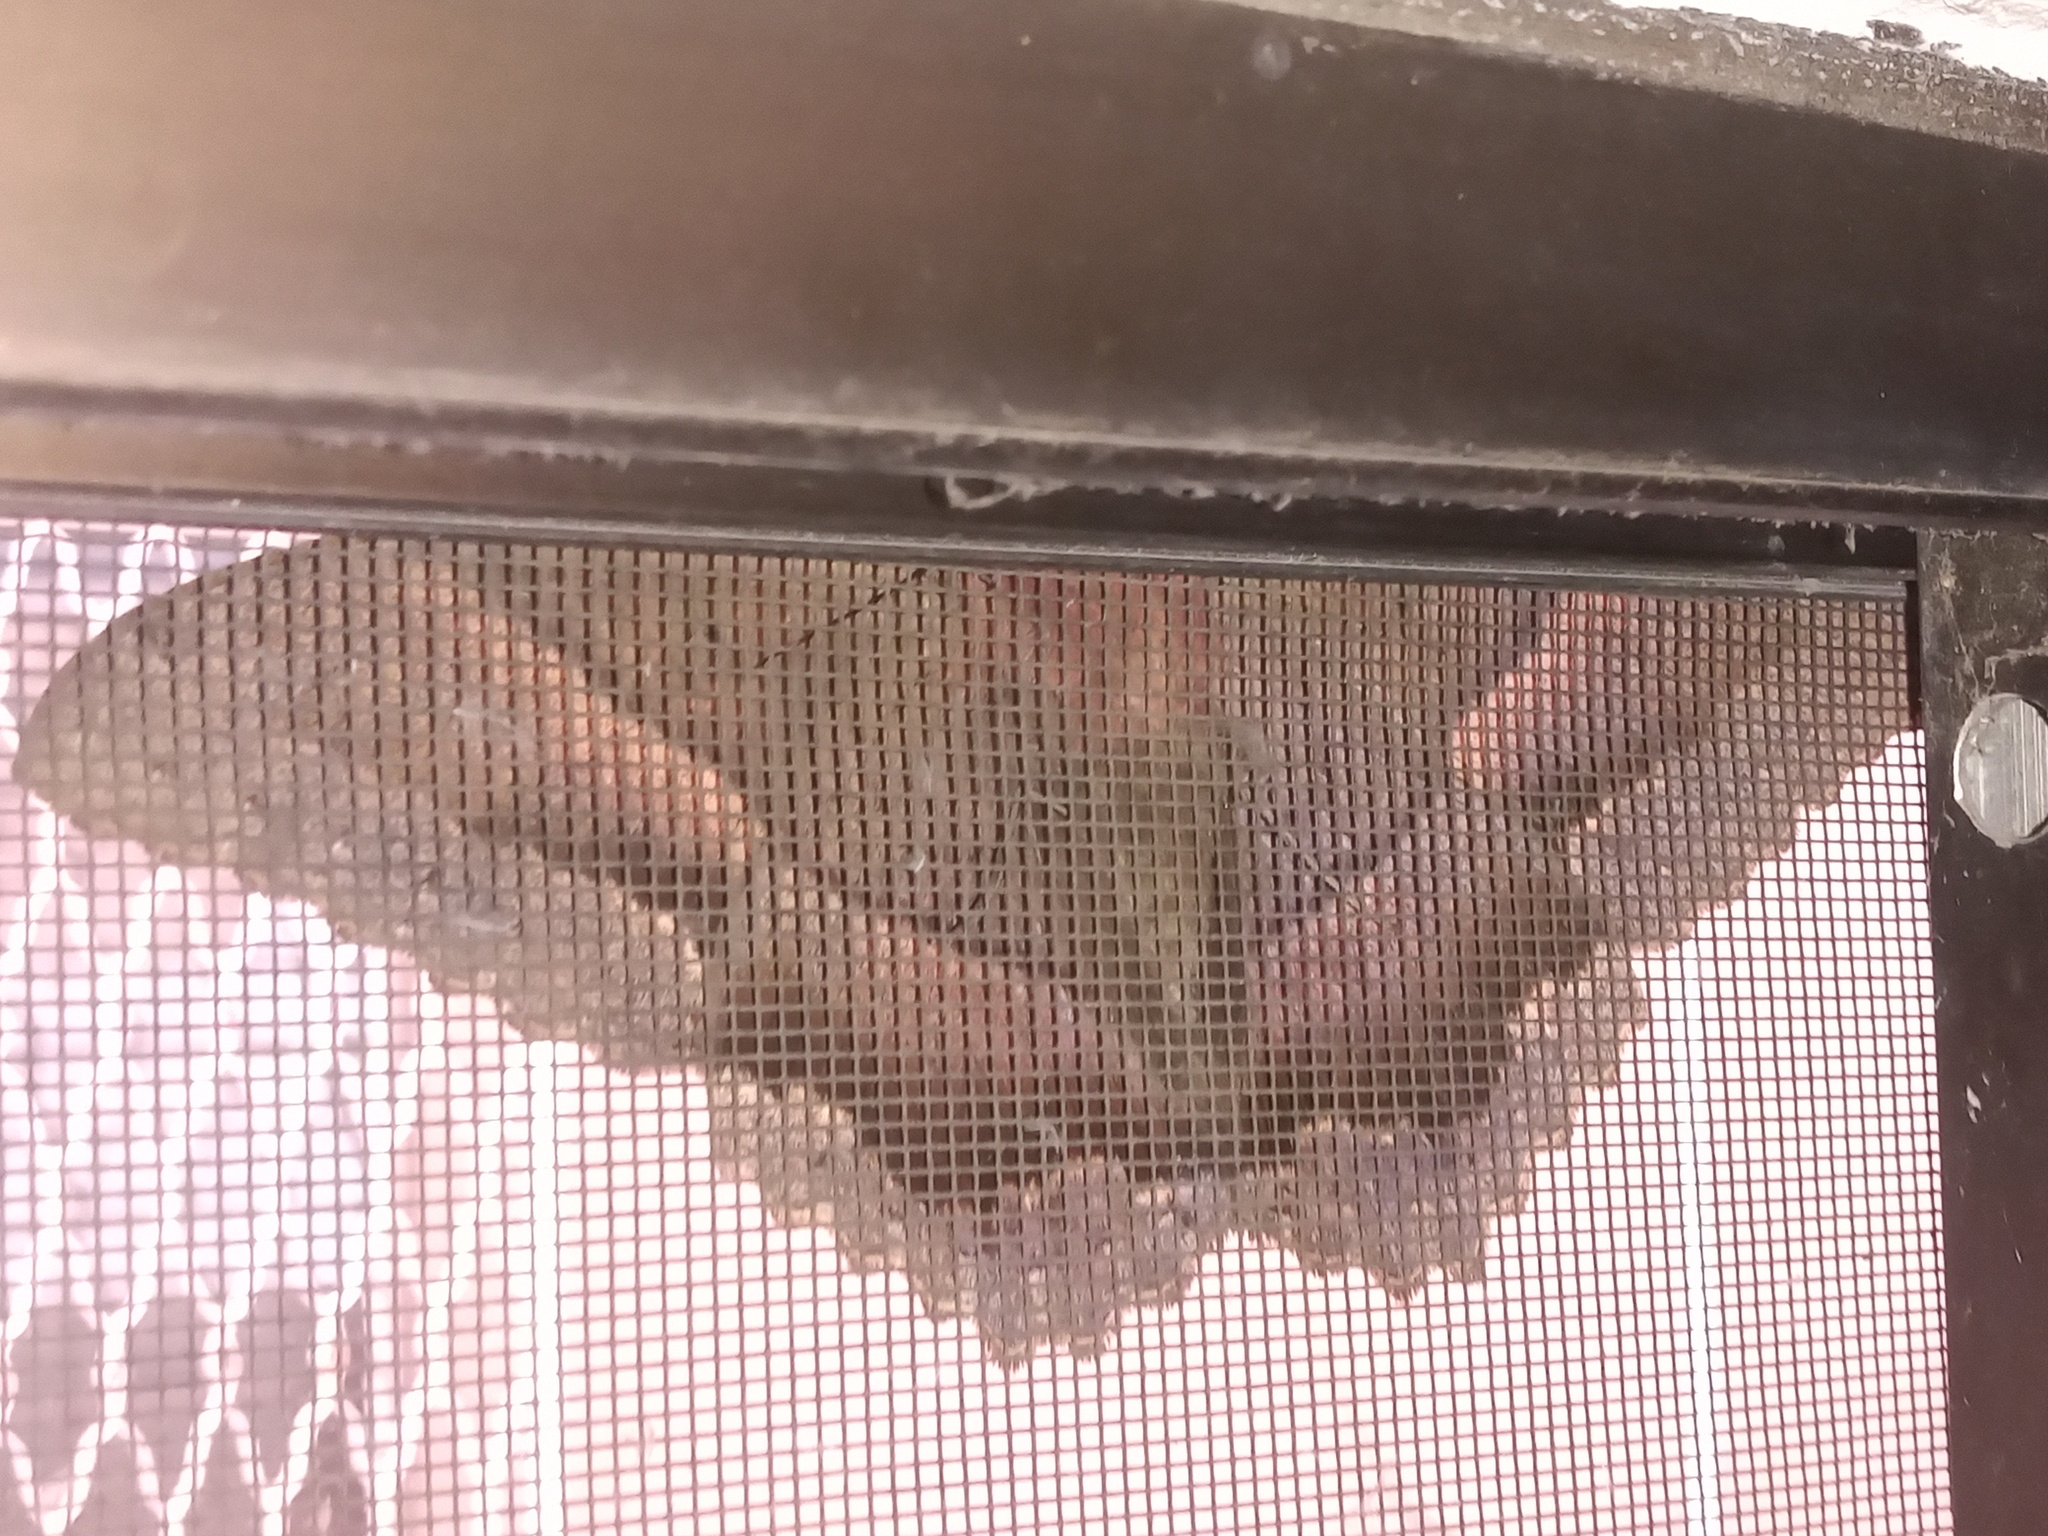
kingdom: Animalia
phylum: Arthropoda
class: Insecta
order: Lepidoptera
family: Erebidae
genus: Ascalapha
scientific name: Ascalapha odorata
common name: Black witch
